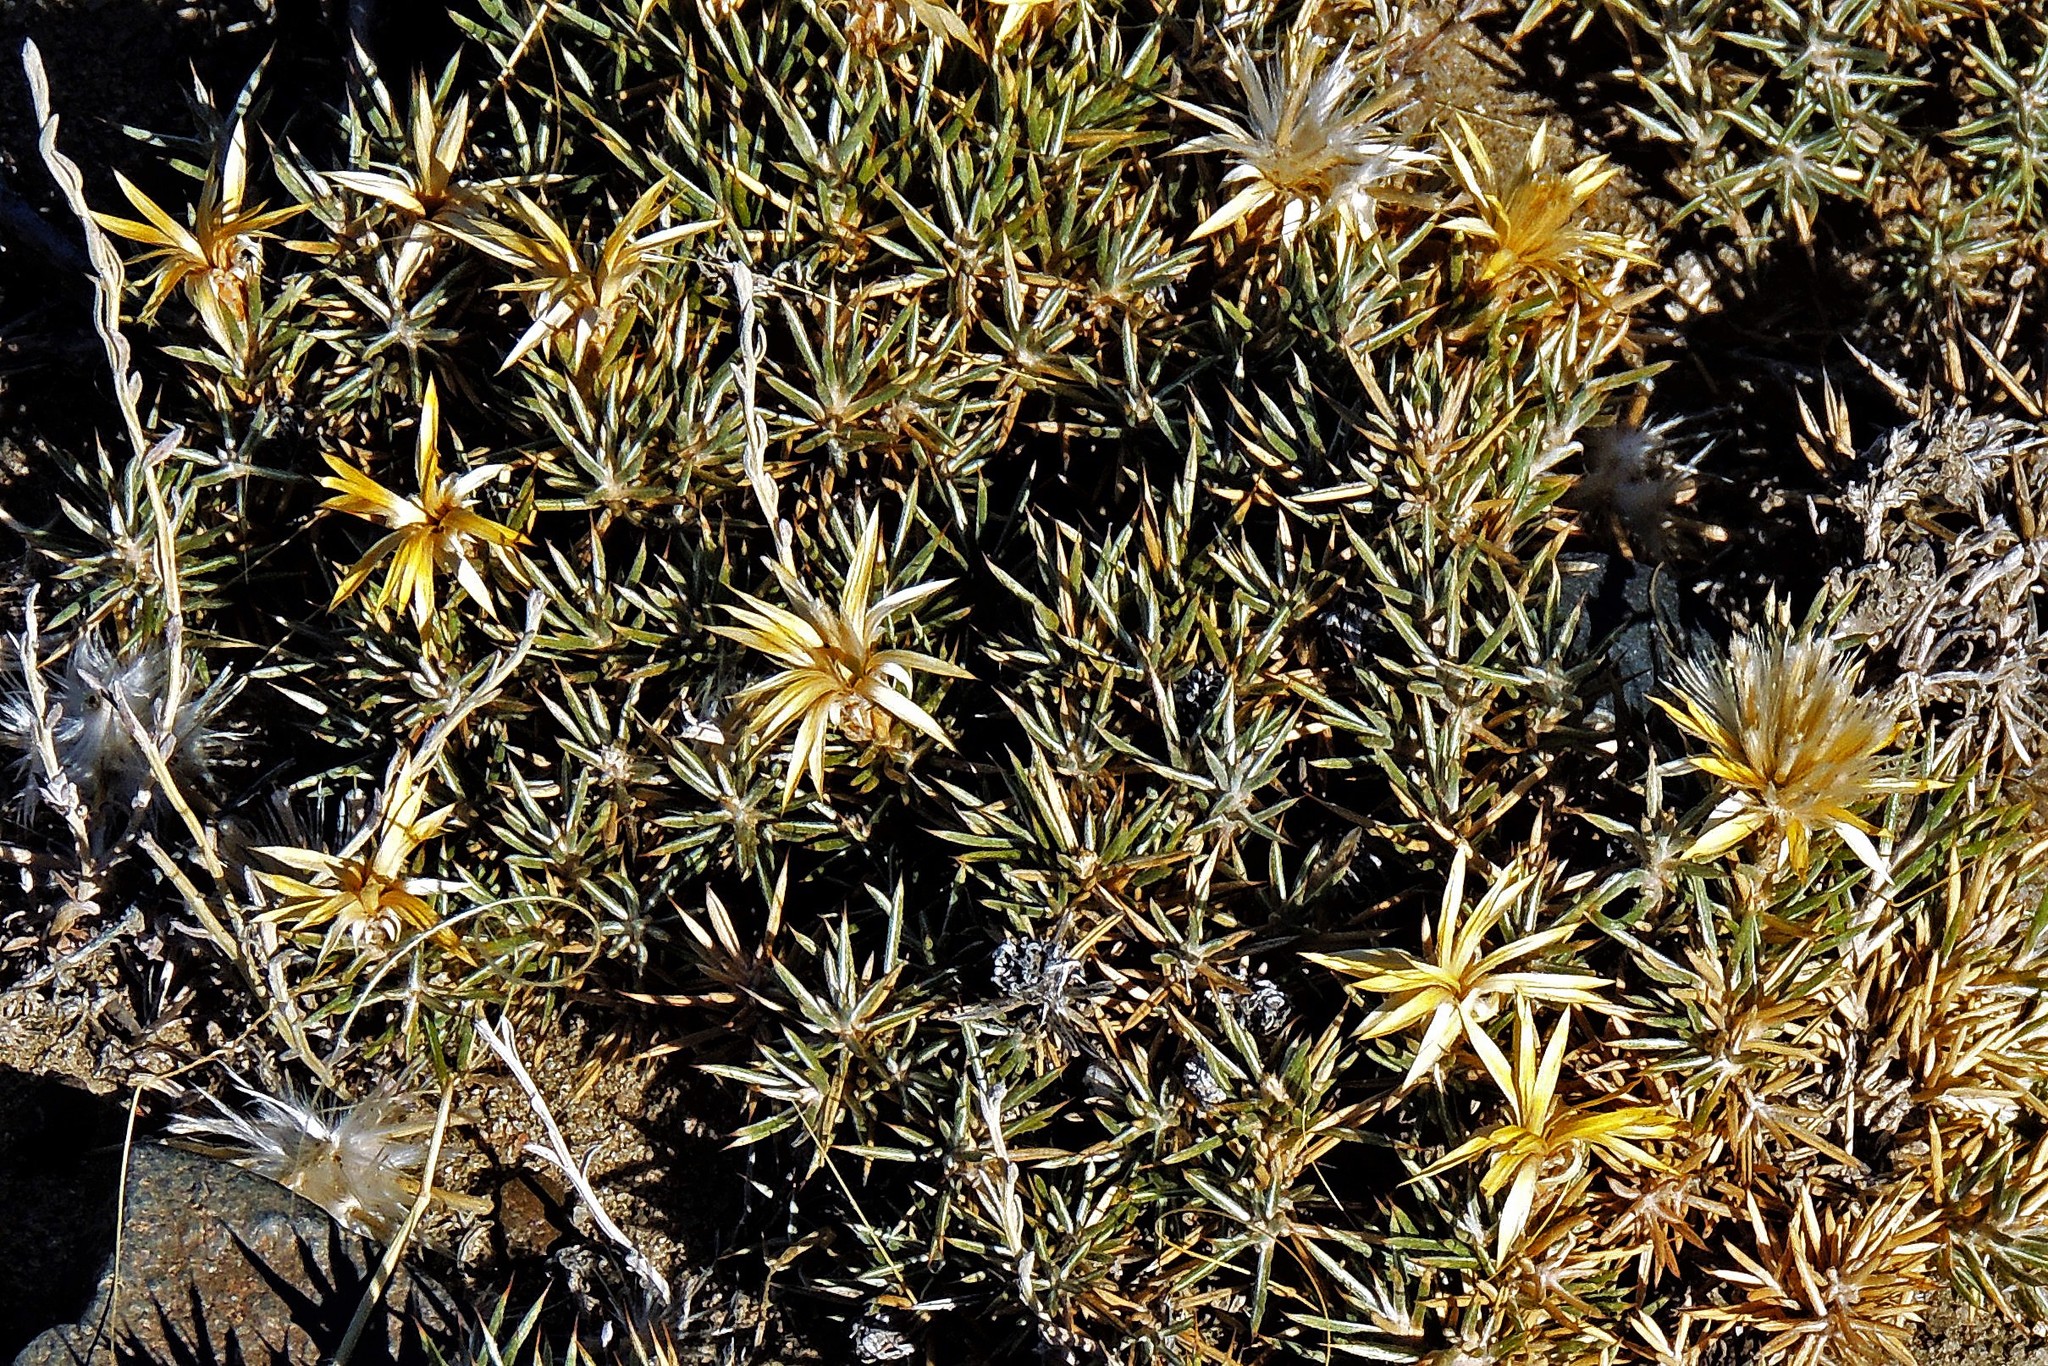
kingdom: Plantae
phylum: Tracheophyta
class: Magnoliopsida
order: Asterales
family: Asteraceae
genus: Chuquiraga
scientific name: Chuquiraga erinacea
